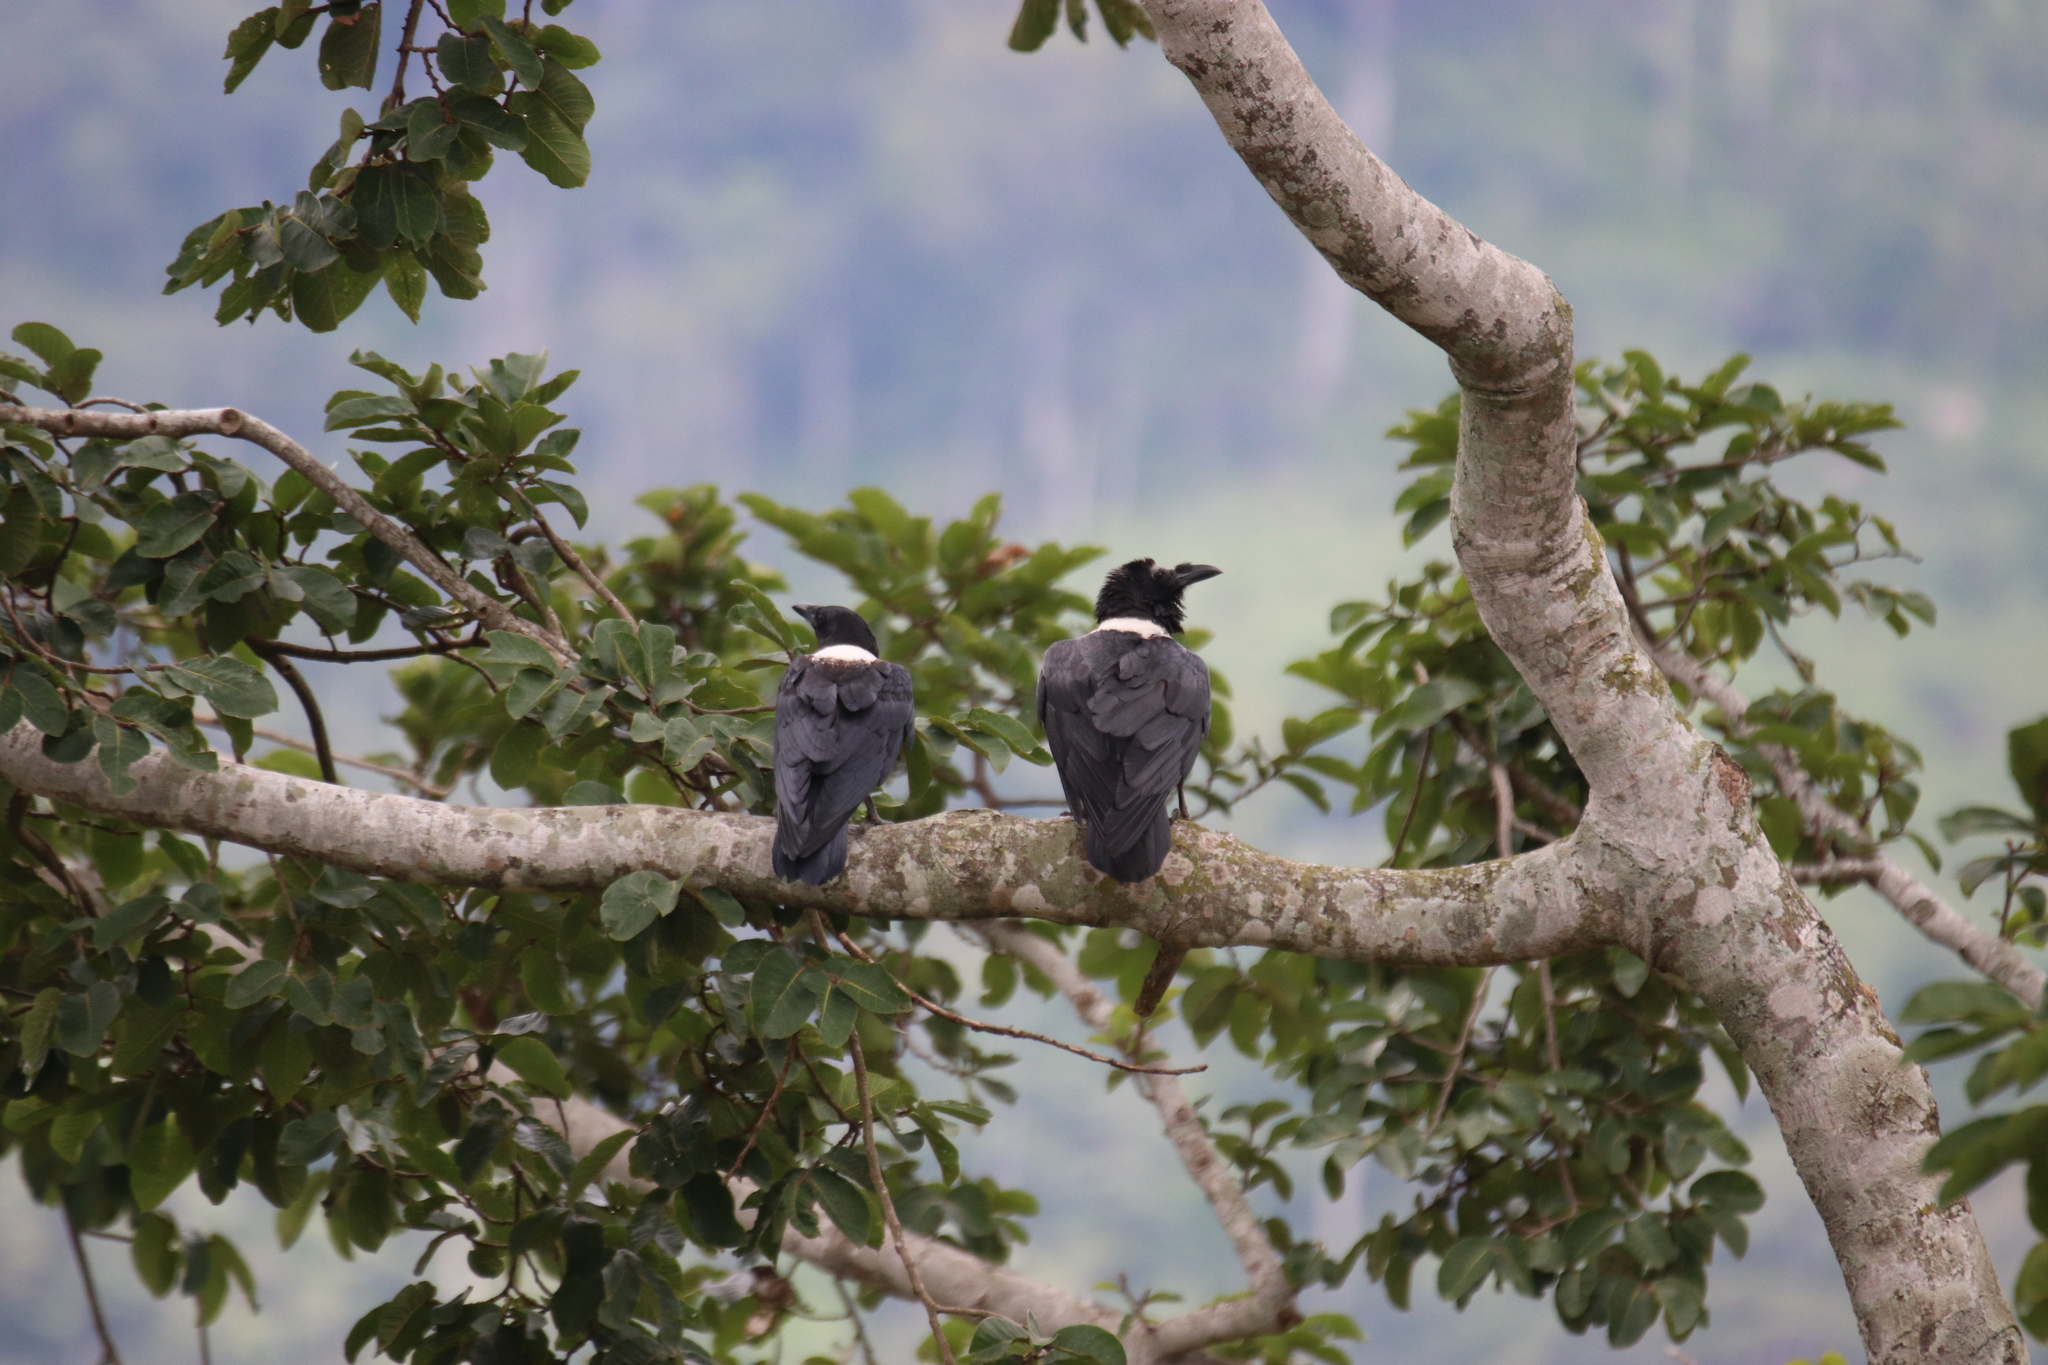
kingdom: Animalia
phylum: Chordata
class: Aves
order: Passeriformes
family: Corvidae
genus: Corvus
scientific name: Corvus albus
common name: Pied crow
